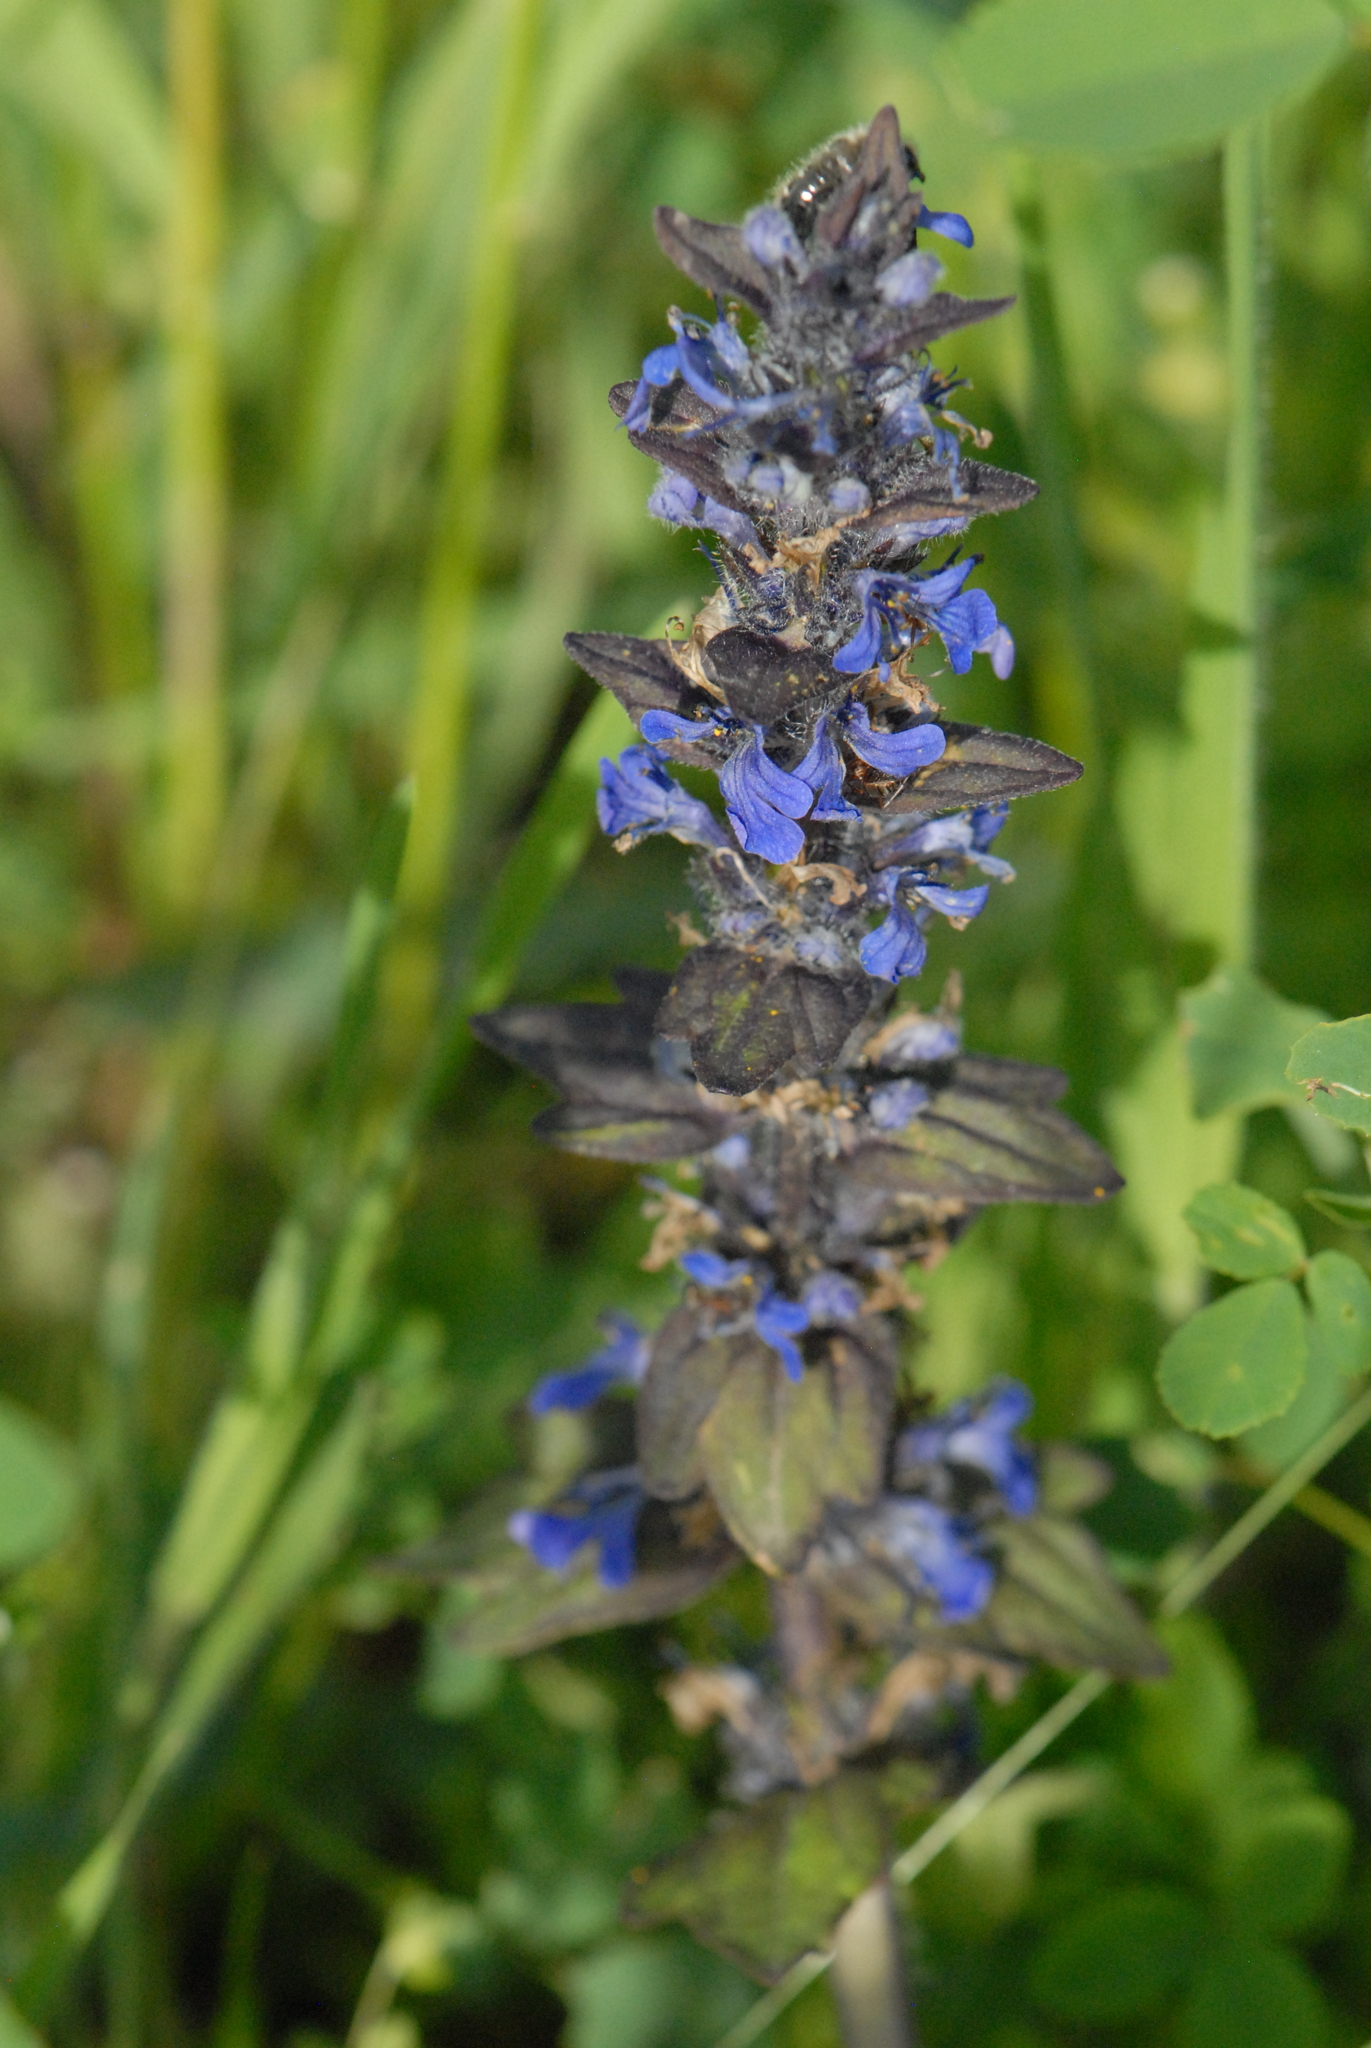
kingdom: Plantae
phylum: Tracheophyta
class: Magnoliopsida
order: Lamiales
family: Lamiaceae
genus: Ajuga
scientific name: Ajuga genevensis
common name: Blue bugle
